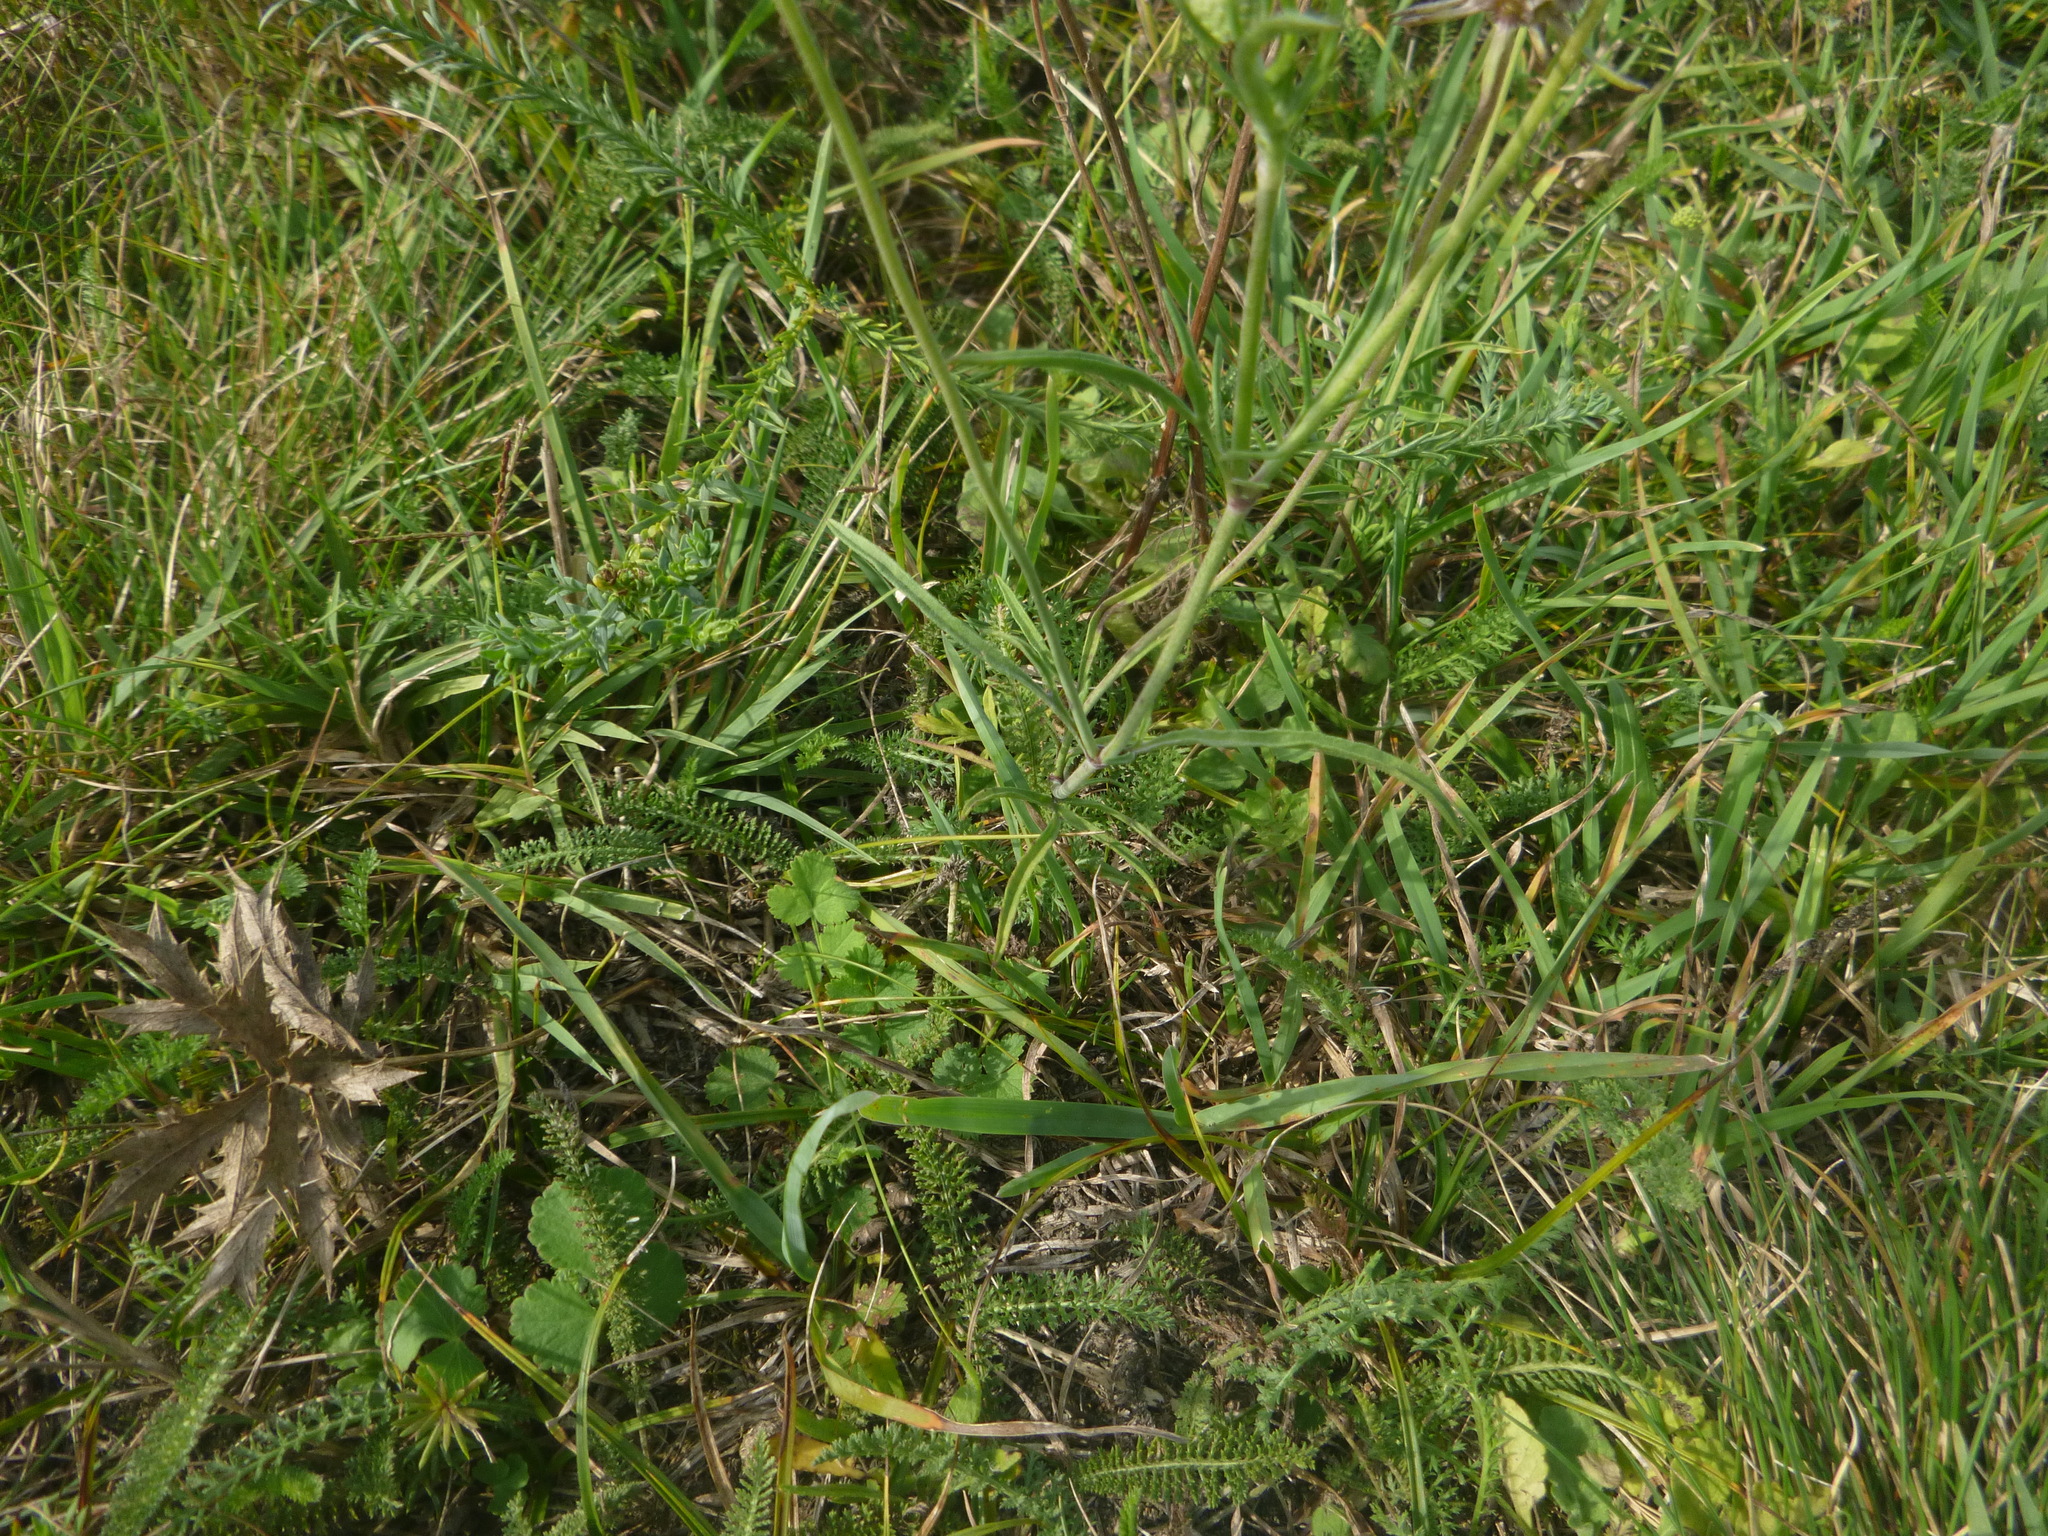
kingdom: Plantae
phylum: Tracheophyta
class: Magnoliopsida
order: Dipsacales
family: Caprifoliaceae
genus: Scabiosa
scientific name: Scabiosa ochroleuca
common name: Cream pincushions
